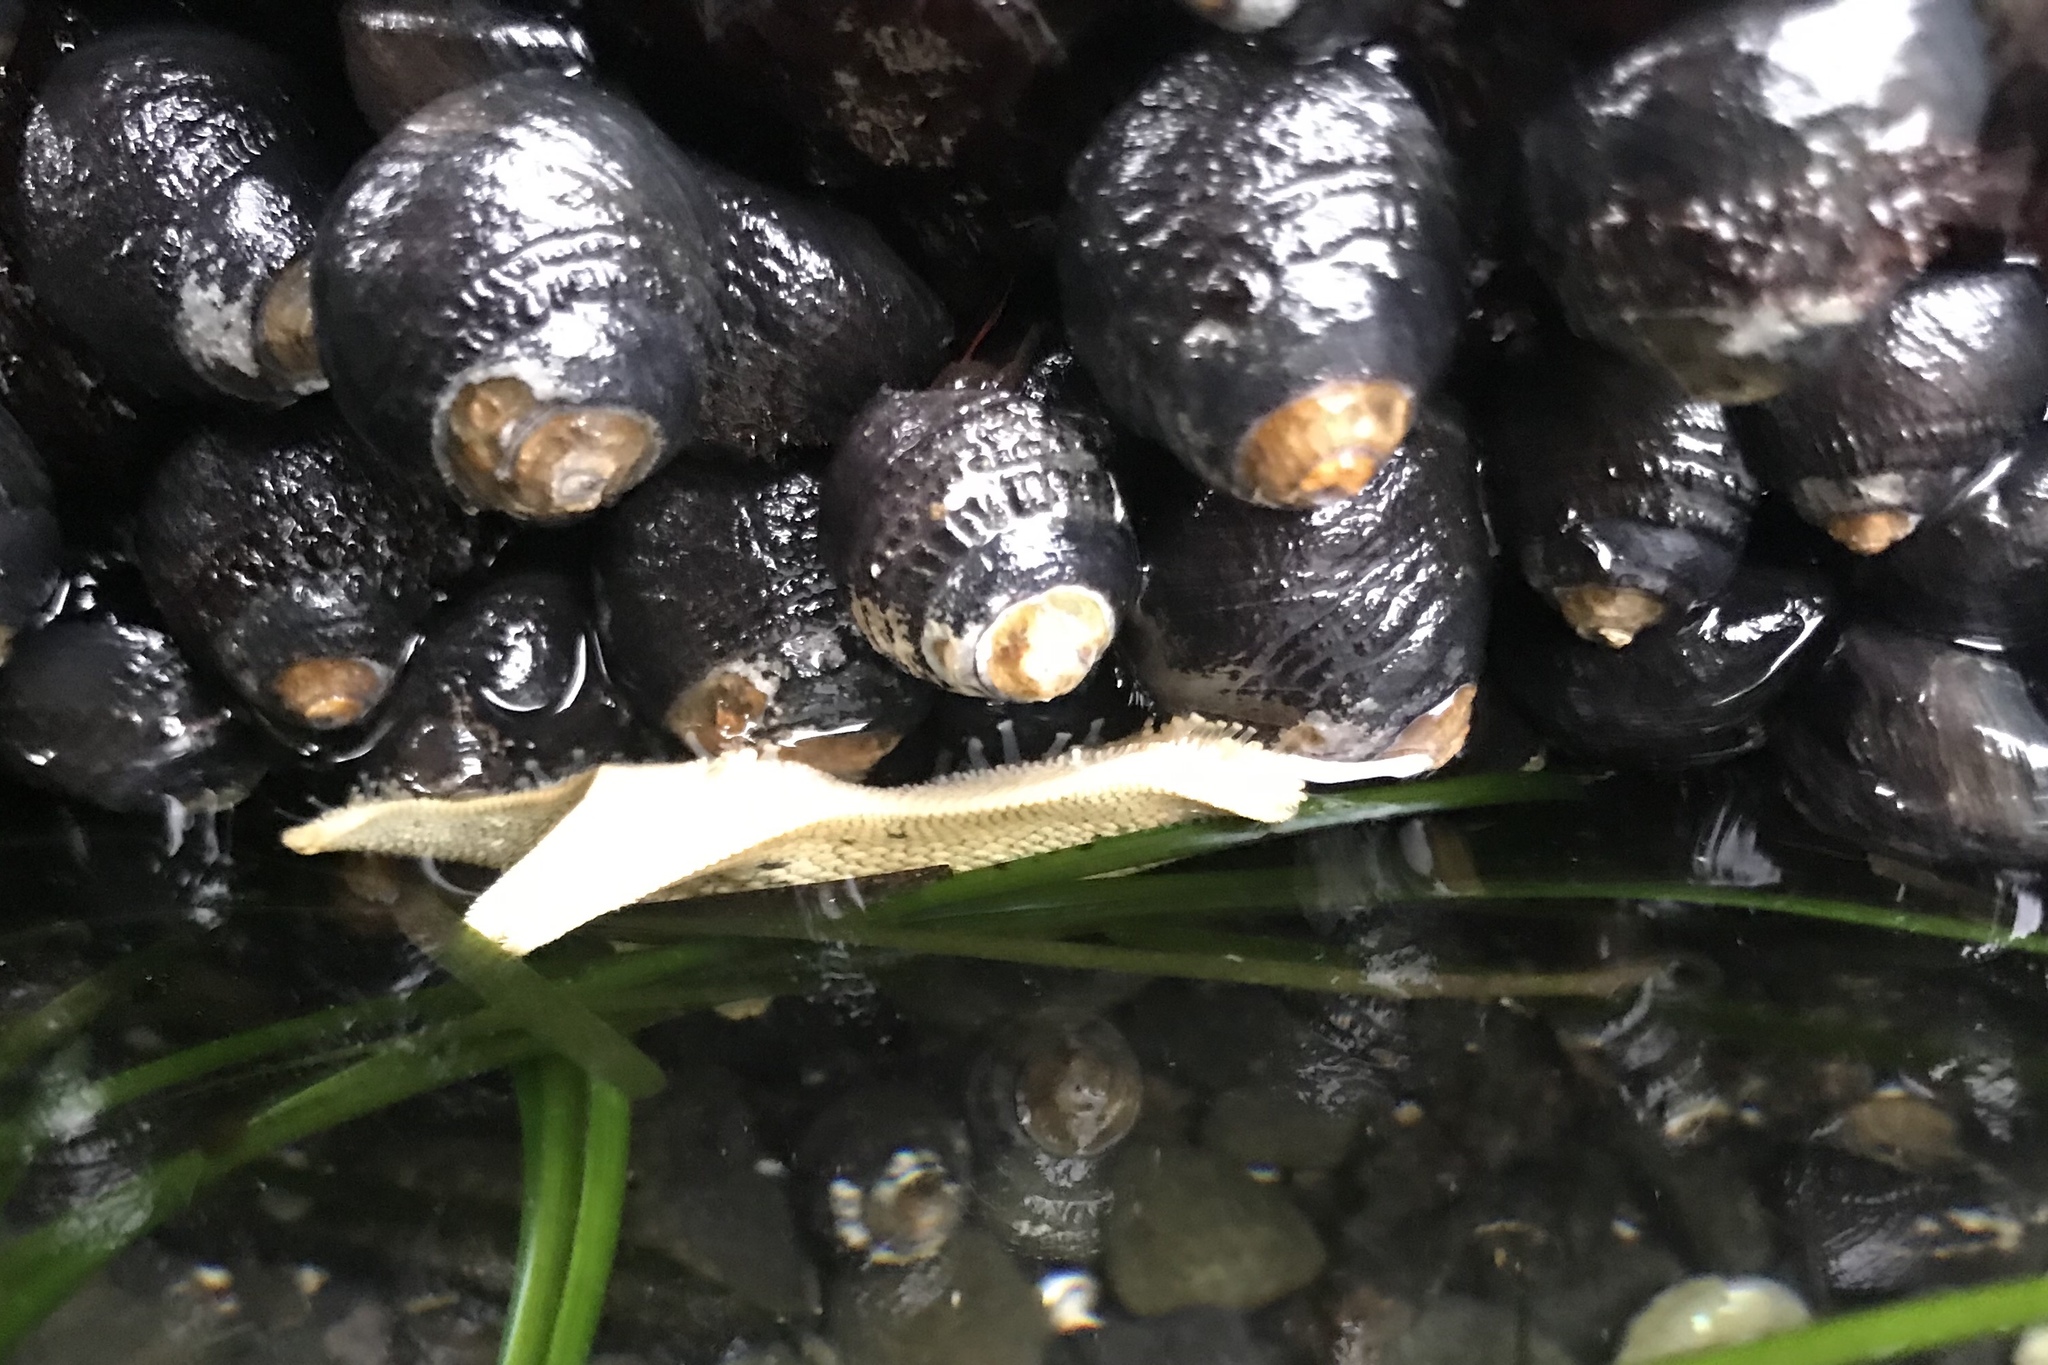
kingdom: Animalia
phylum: Mollusca
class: Gastropoda
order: Trochida
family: Tegulidae
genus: Tegula
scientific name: Tegula funebralis
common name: Black tegula
